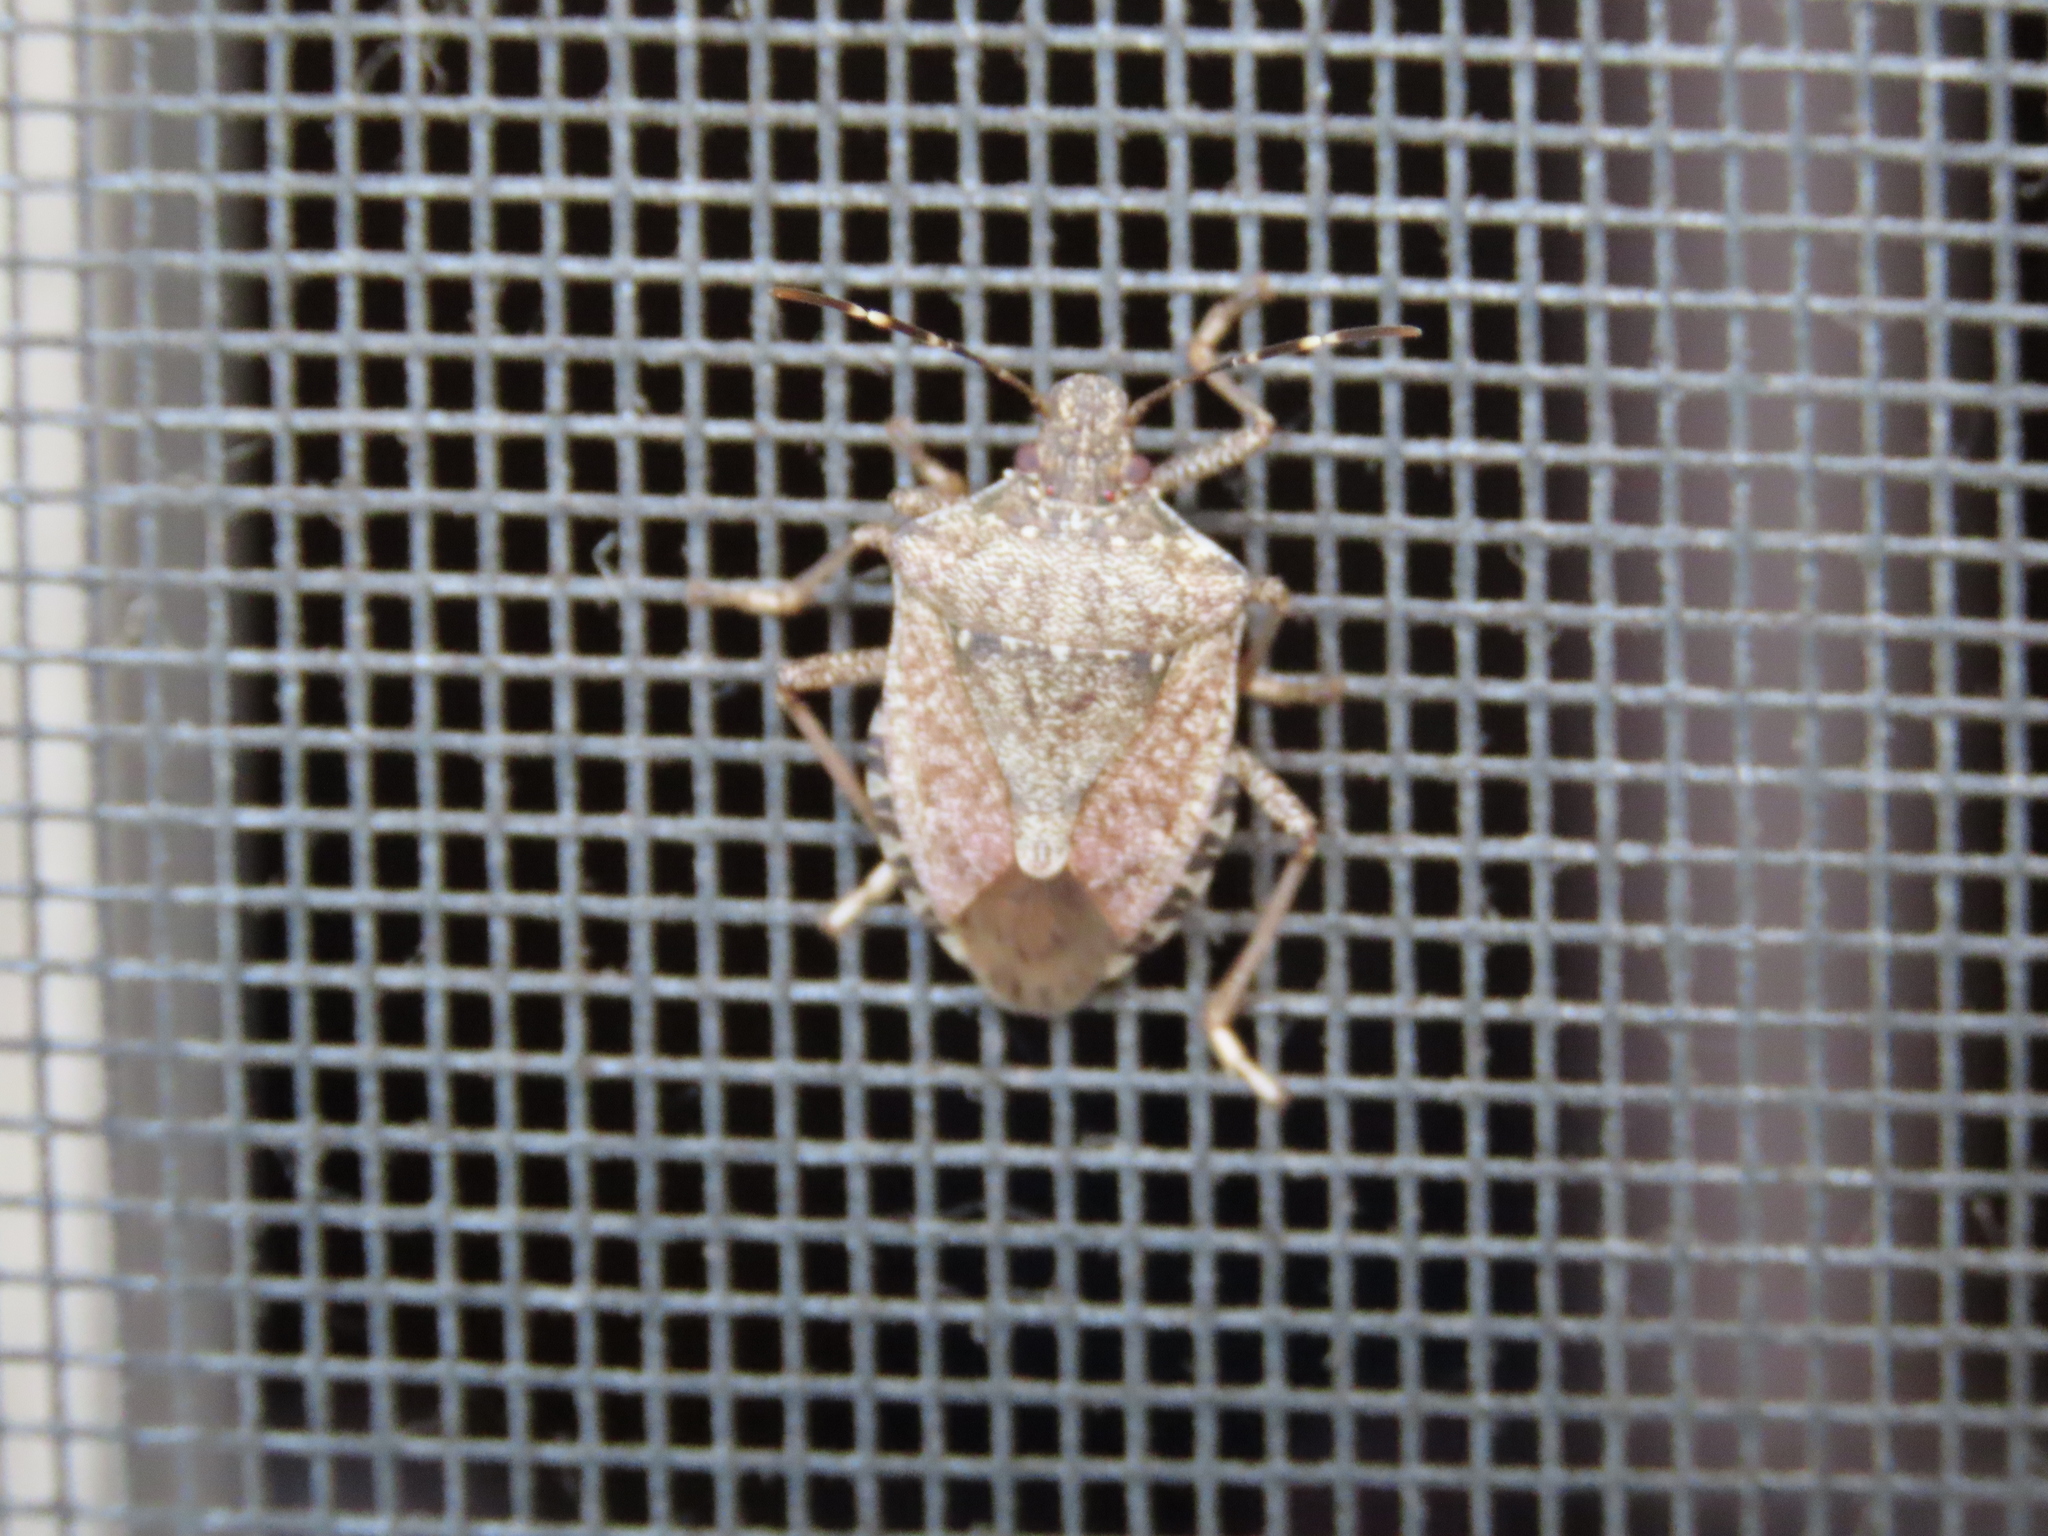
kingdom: Animalia
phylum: Arthropoda
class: Insecta
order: Hemiptera
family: Pentatomidae
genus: Halyomorpha
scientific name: Halyomorpha halys
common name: Brown marmorated stink bug
